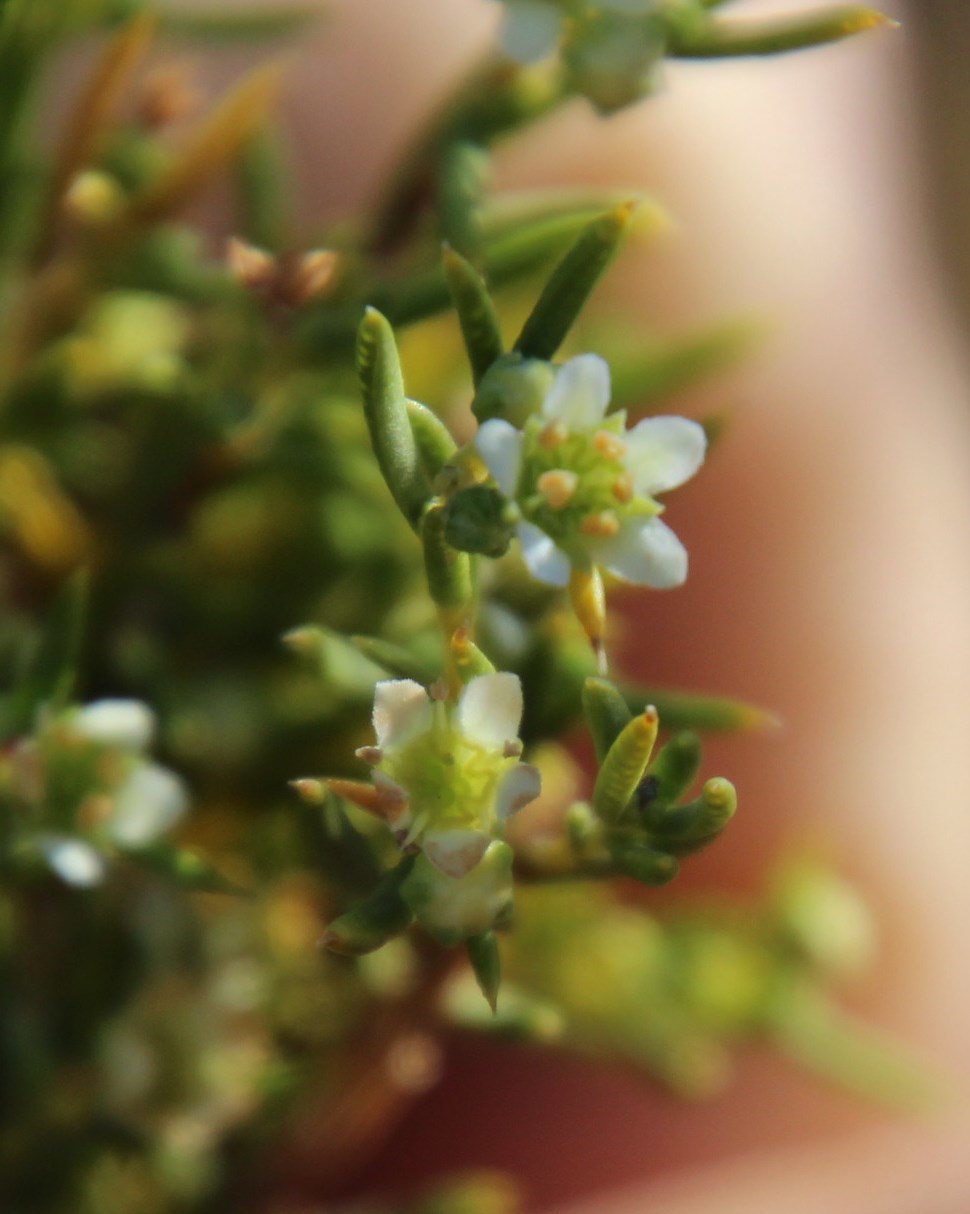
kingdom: Plantae
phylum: Tracheophyta
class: Magnoliopsida
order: Sapindales
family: Rutaceae
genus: Diosma
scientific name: Diosma acmaeophylla
